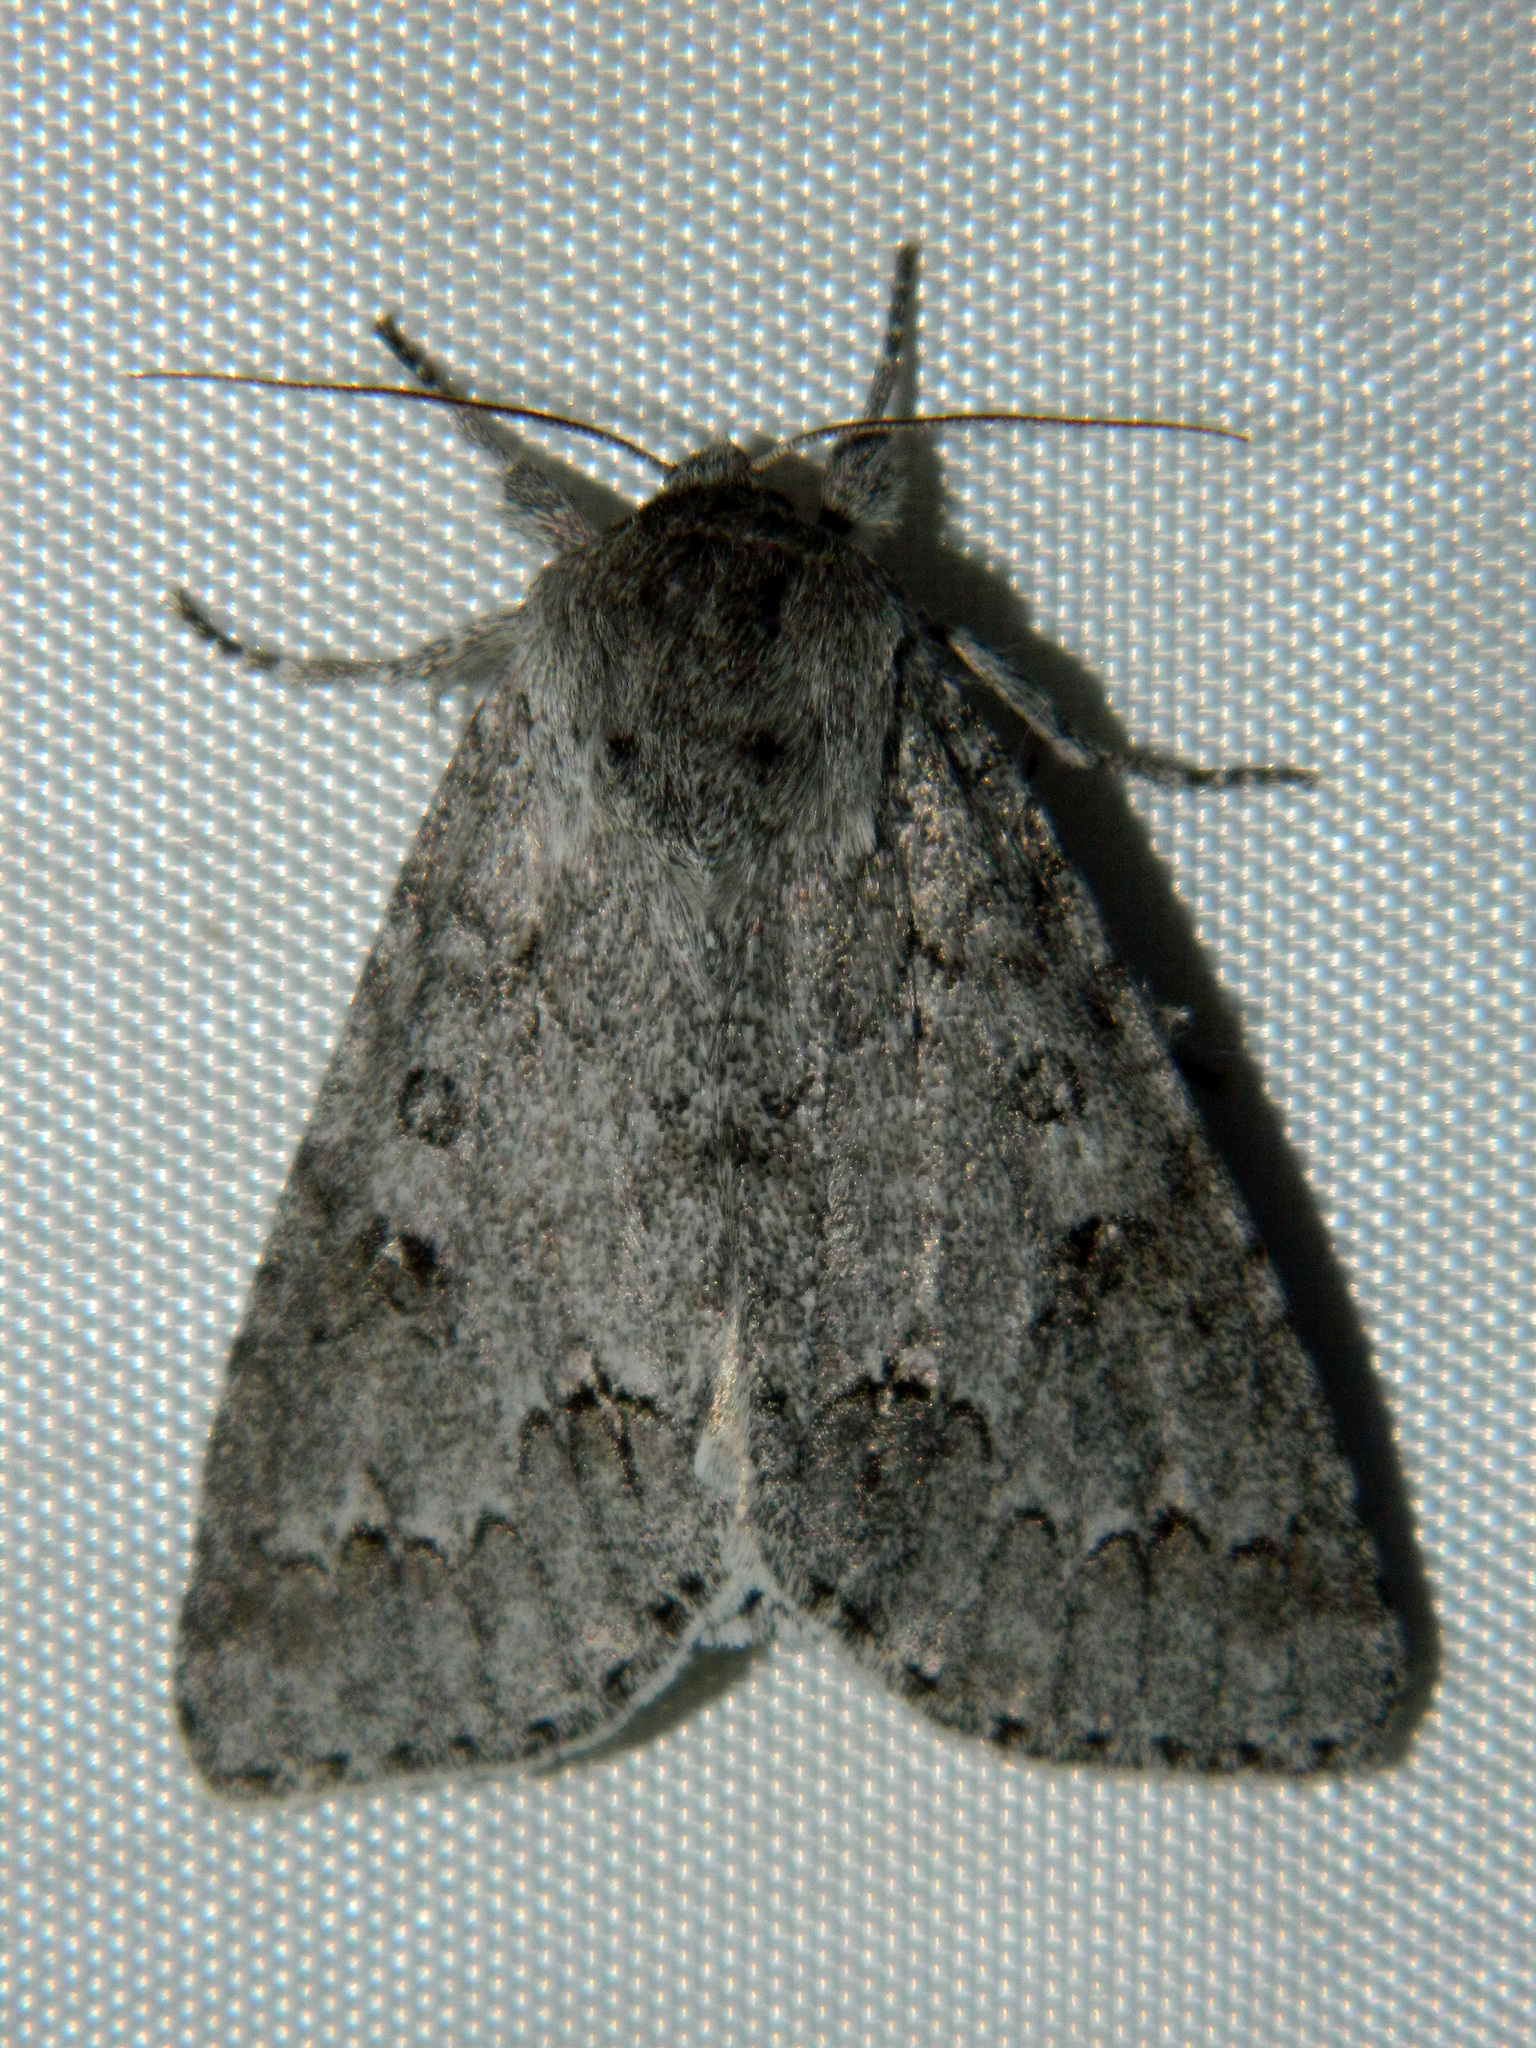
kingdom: Animalia
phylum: Arthropoda
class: Insecta
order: Lepidoptera
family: Noctuidae
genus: Acronicta
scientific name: Acronicta insita
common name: Large gray dagger
